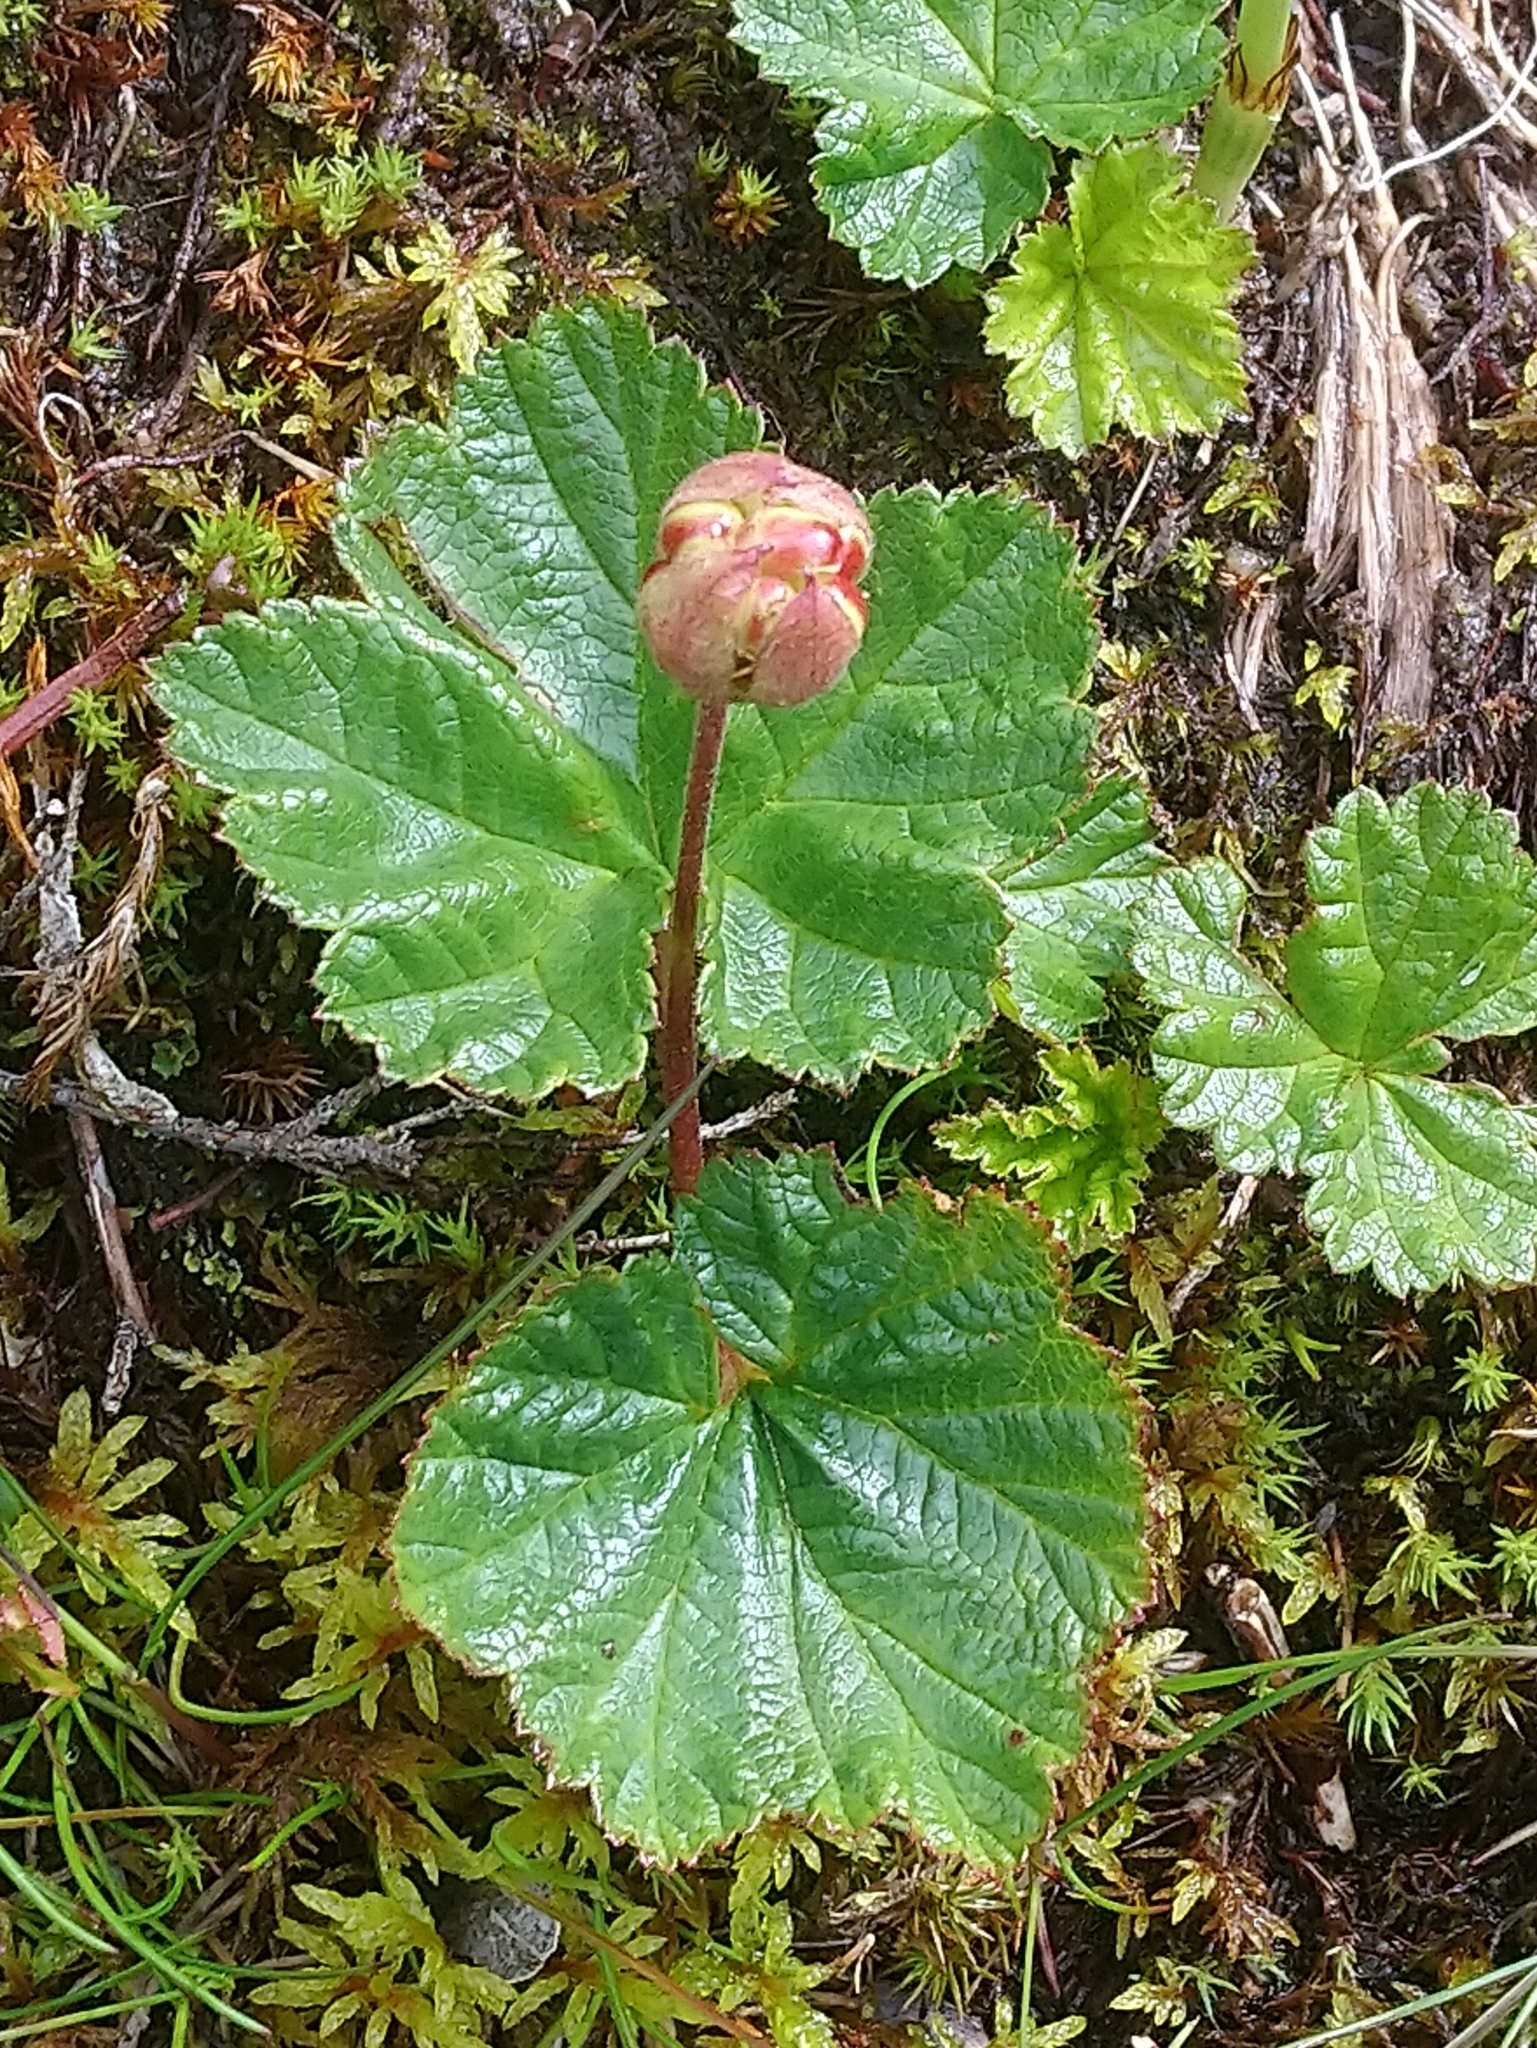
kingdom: Plantae
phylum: Tracheophyta
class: Magnoliopsida
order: Rosales
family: Rosaceae
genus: Rubus
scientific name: Rubus chamaemorus
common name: Cloudberry
